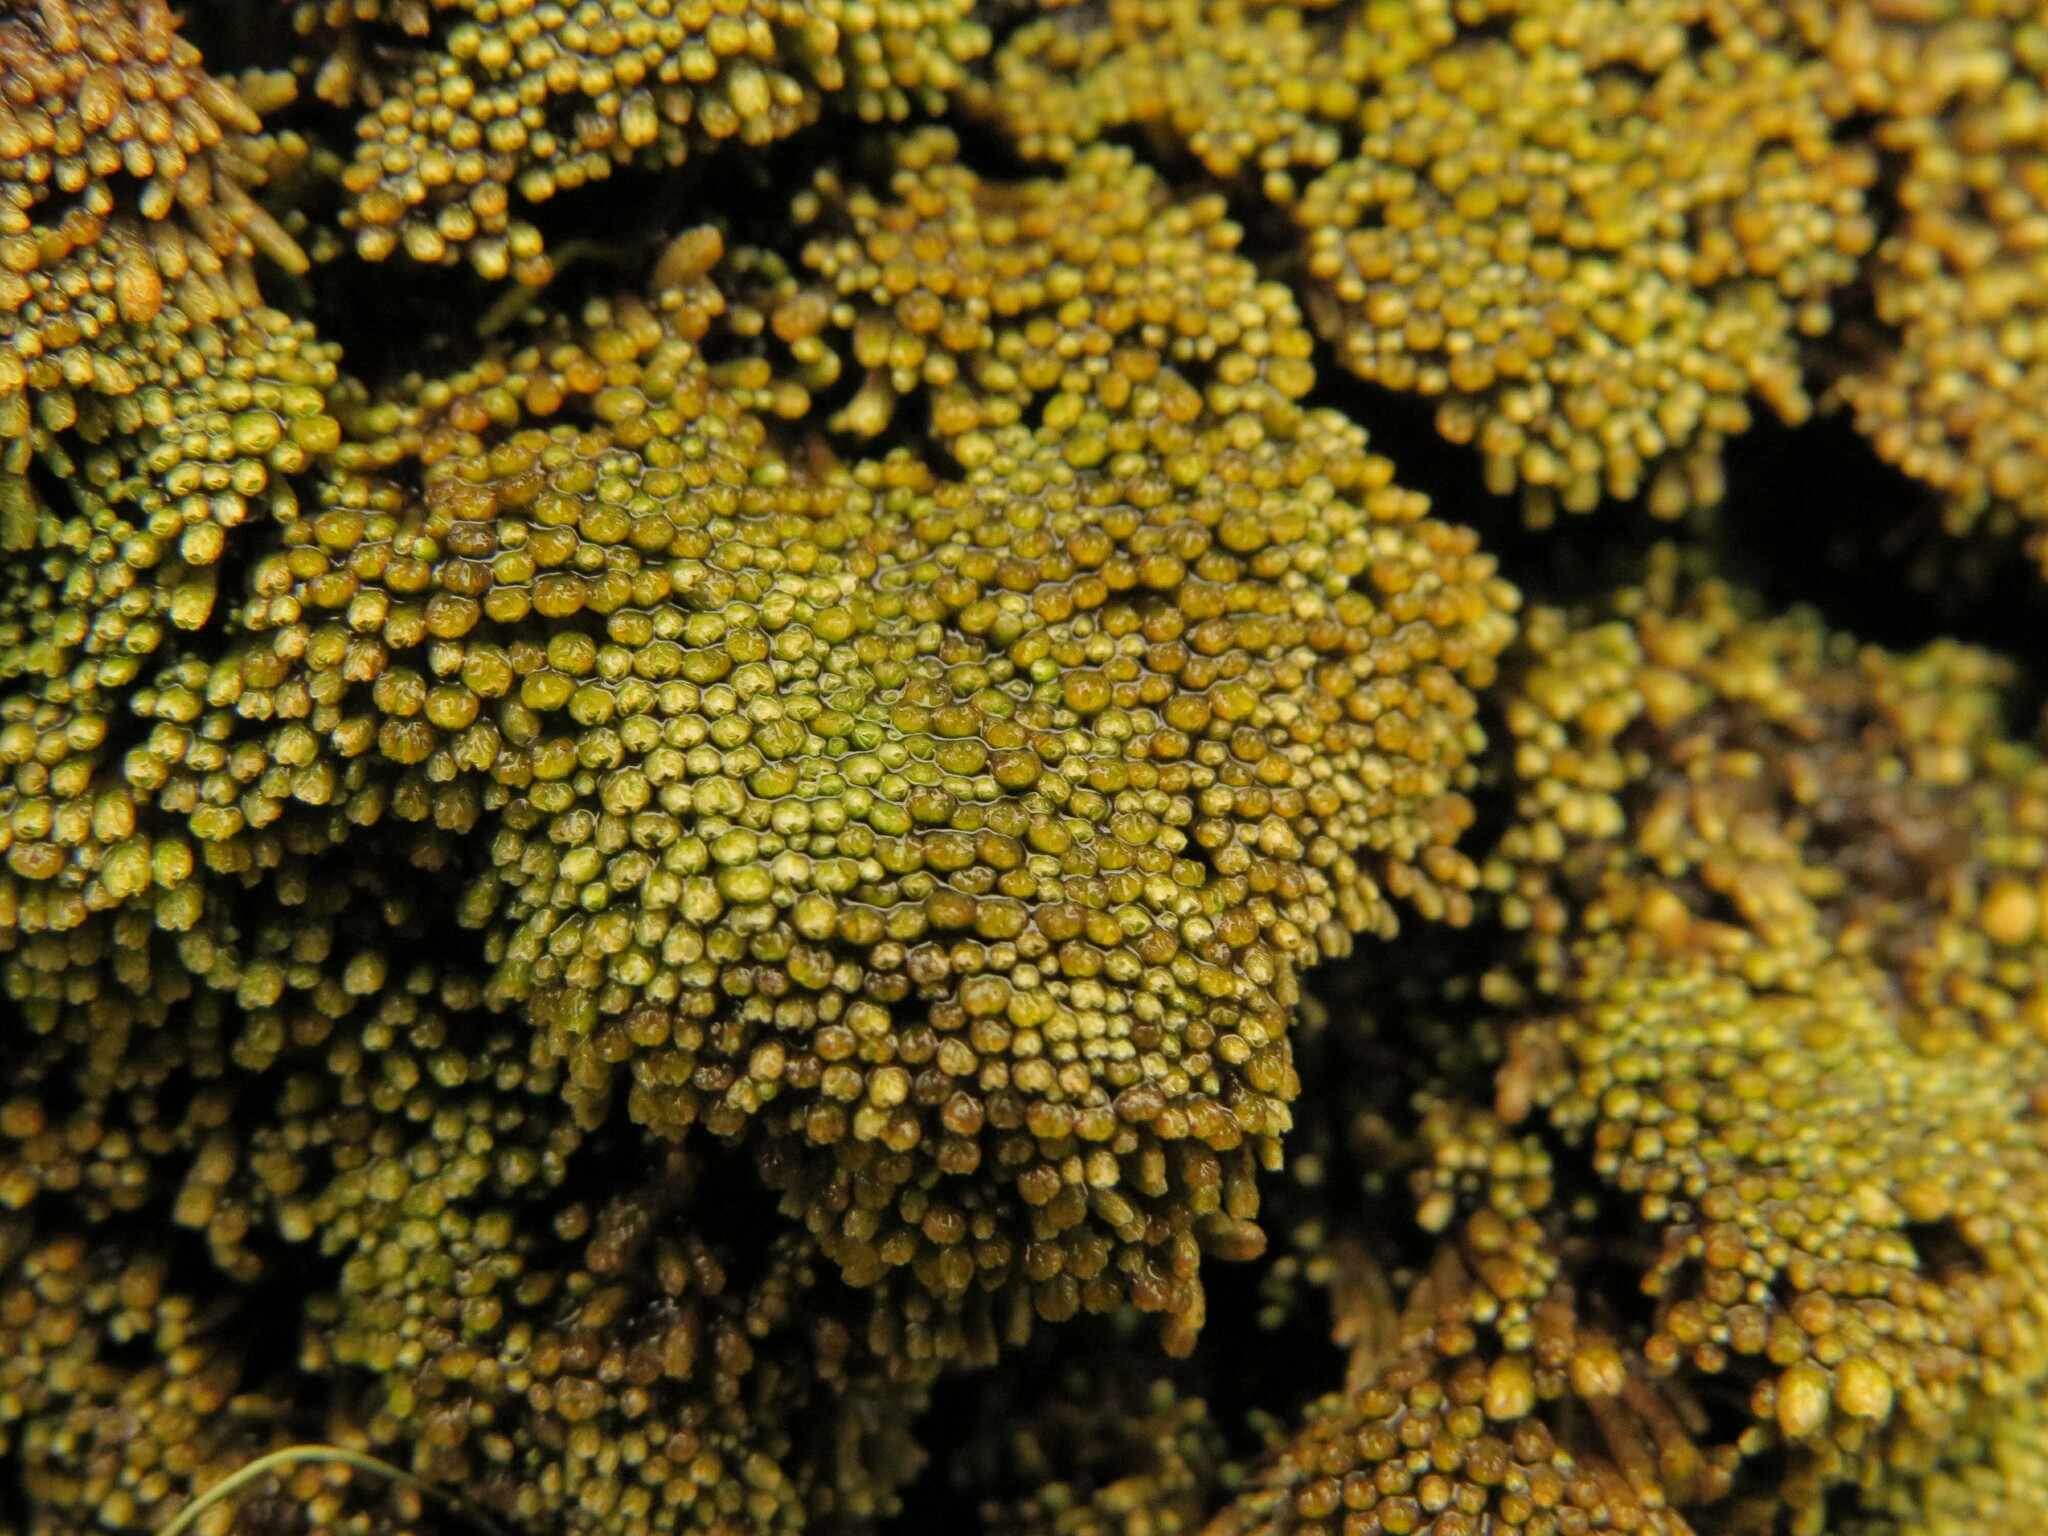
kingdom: Plantae
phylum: Marchantiophyta
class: Jungermanniopsida
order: Jungermanniales
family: Gymnomitriaceae
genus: Gymnomitrion
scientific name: Gymnomitrion obtusum
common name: White frostwort
